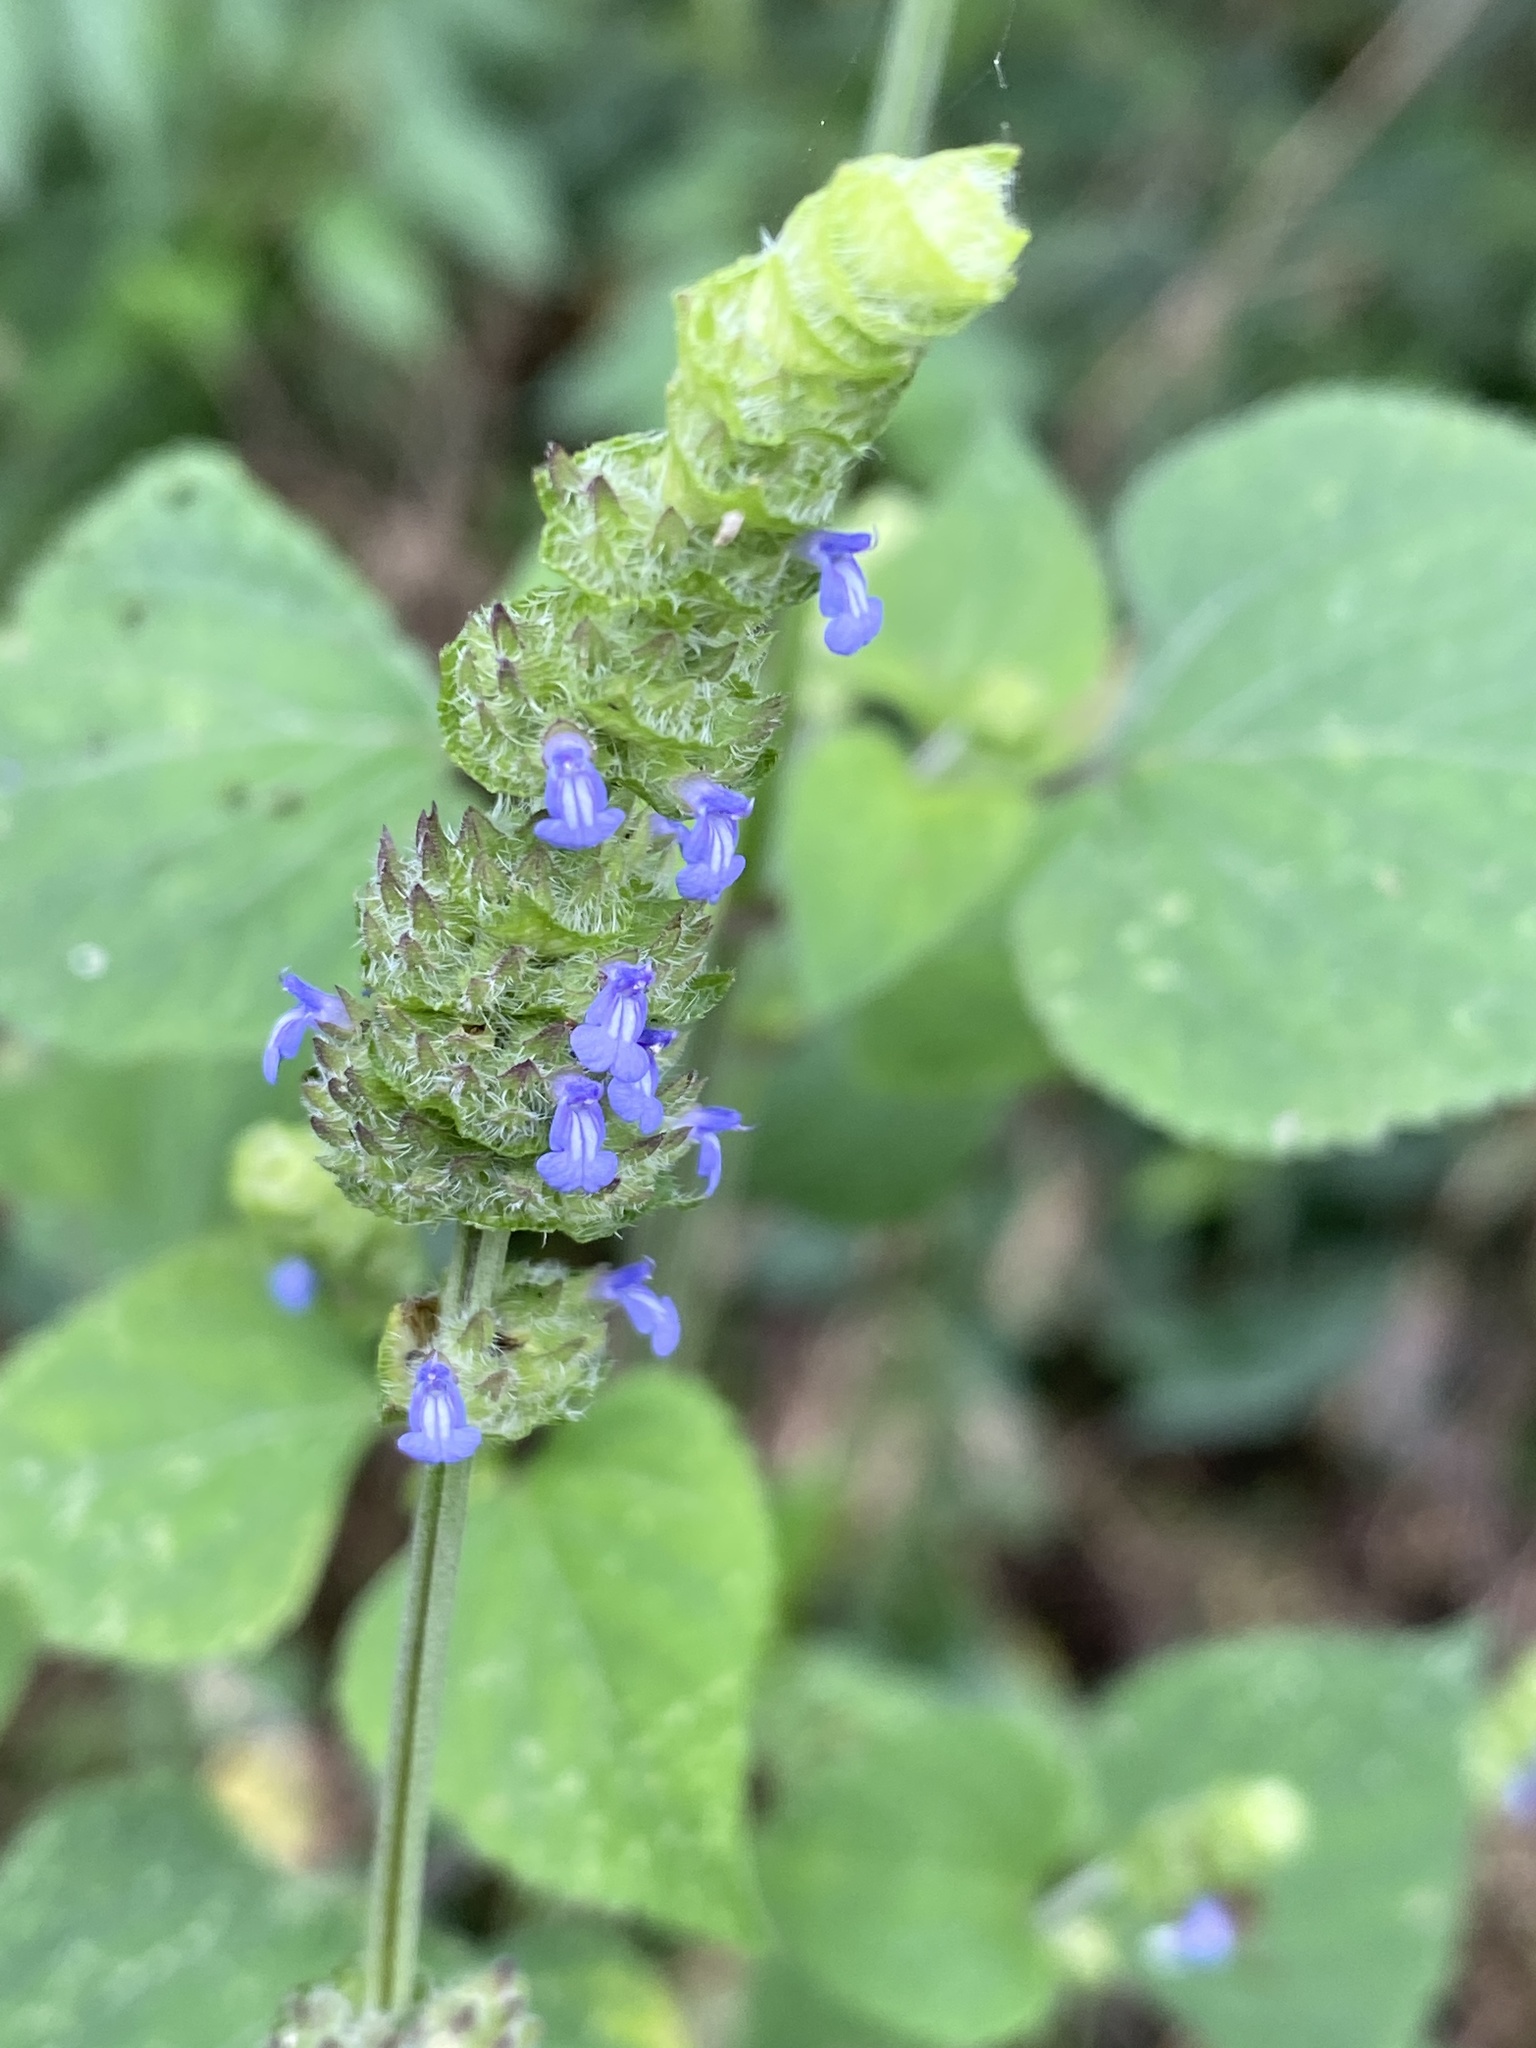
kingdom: Plantae
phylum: Tracheophyta
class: Magnoliopsida
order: Lamiales
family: Lamiaceae
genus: Salvia
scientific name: Salvia lasiocephala
